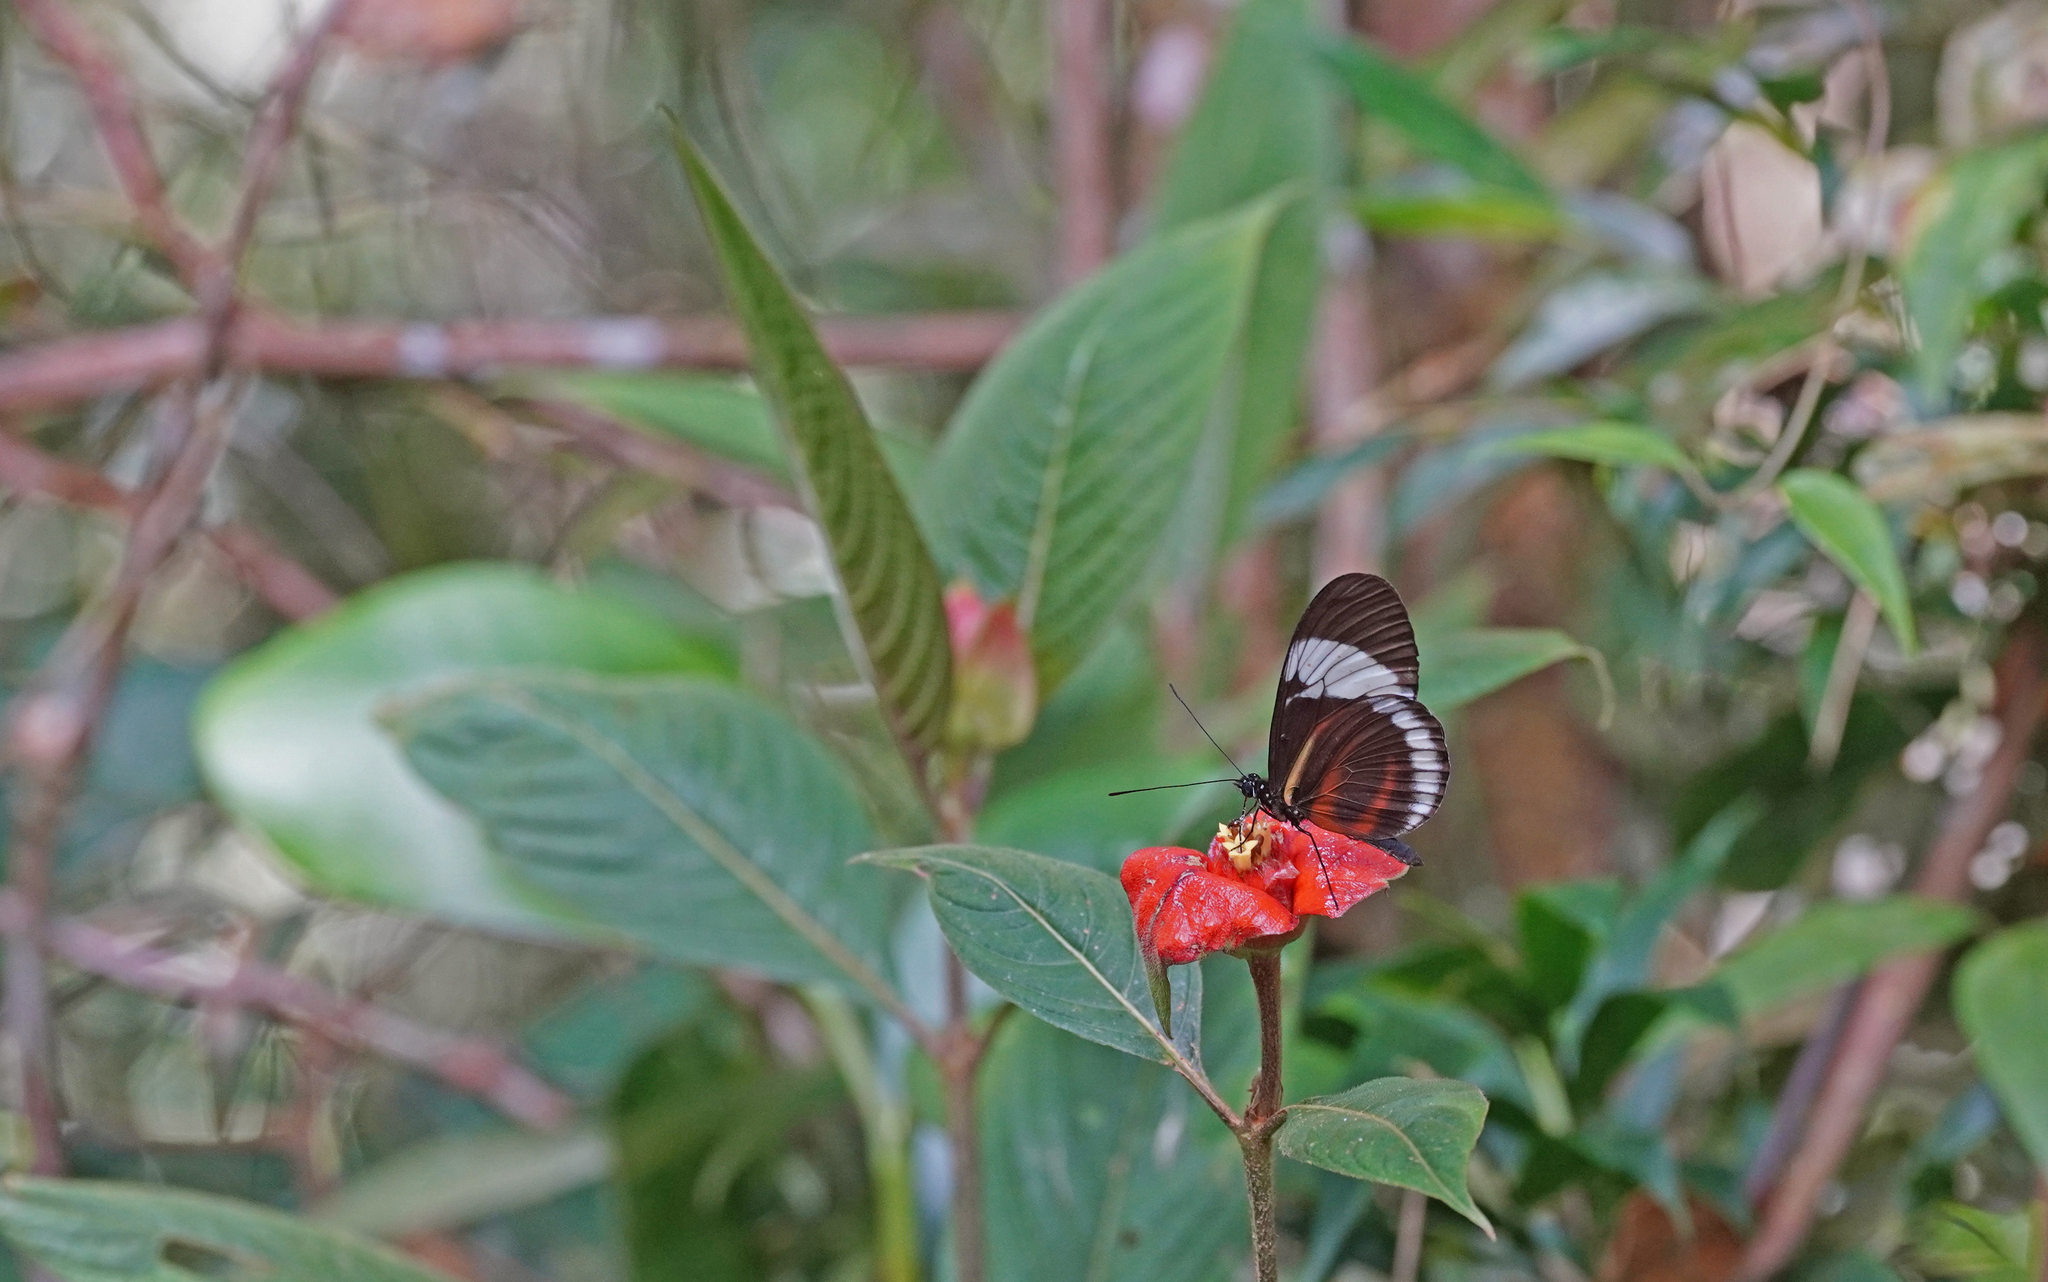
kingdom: Animalia
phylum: Arthropoda
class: Insecta
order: Lepidoptera
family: Nymphalidae
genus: Heliconius
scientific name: Heliconius cydno
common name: Cydno longwing
